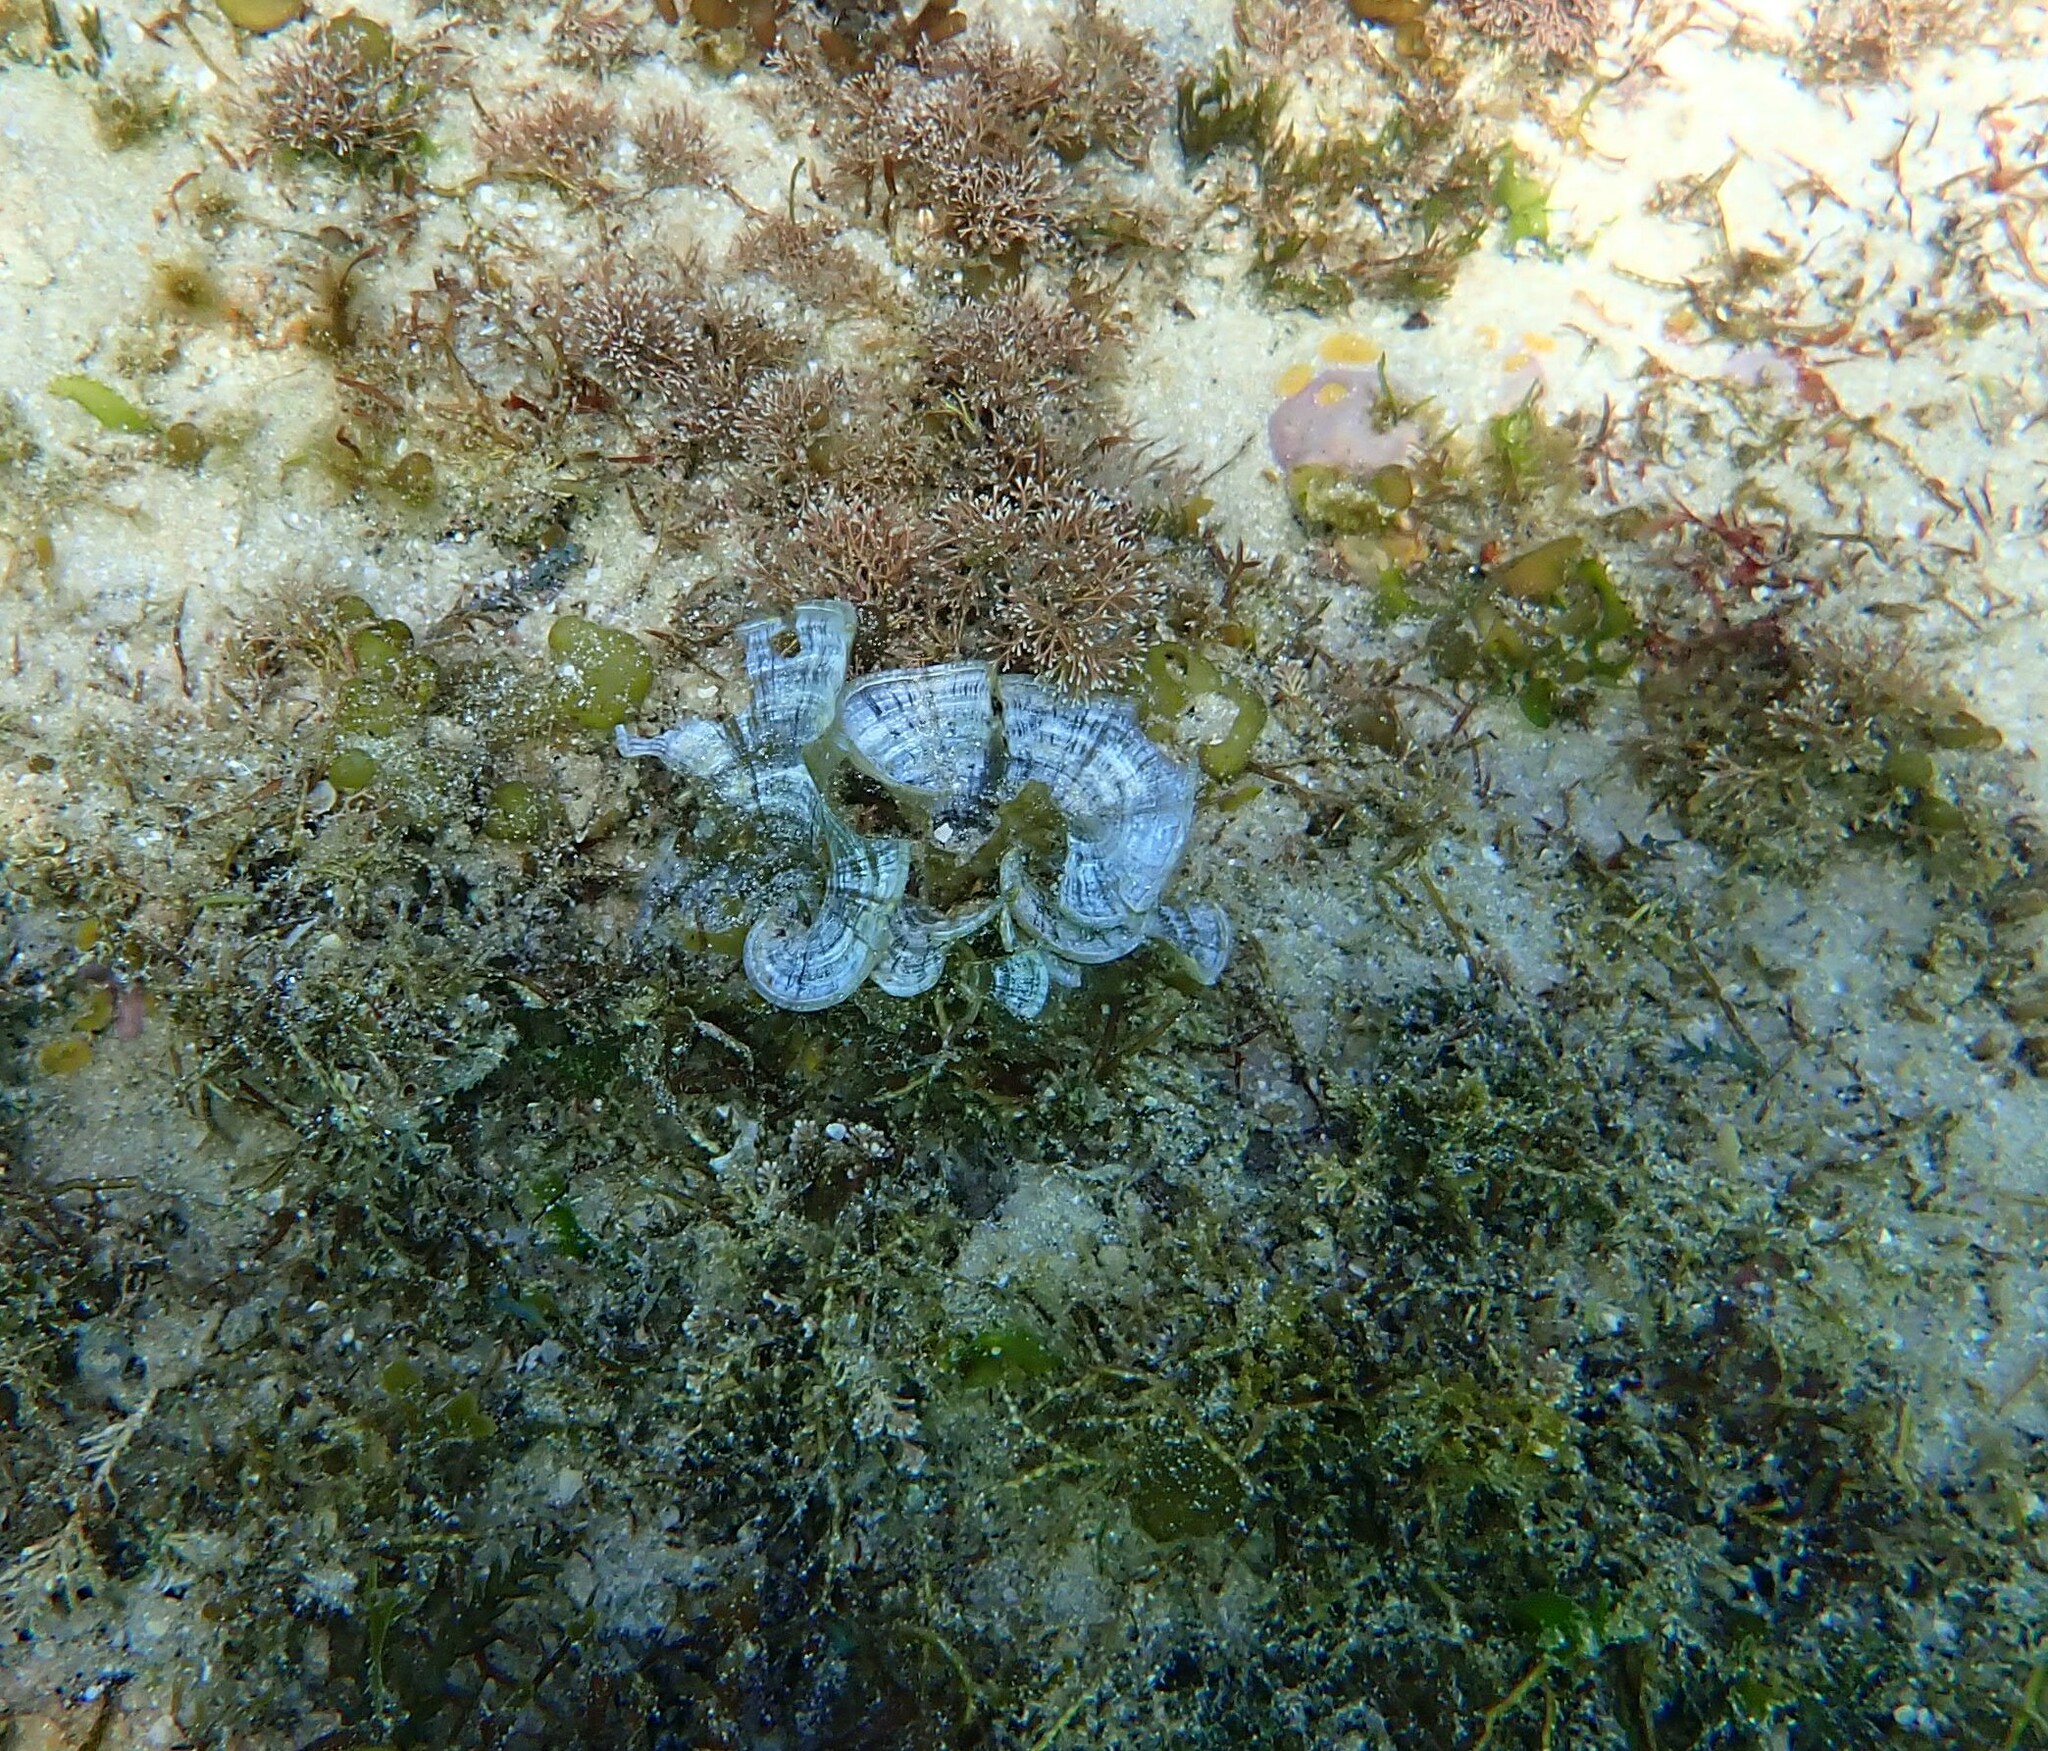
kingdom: Chromista
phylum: Ochrophyta
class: Phaeophyceae
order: Dictyotales
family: Dictyotaceae
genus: Padina
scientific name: Padina pavonica
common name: Turkey feather alga
